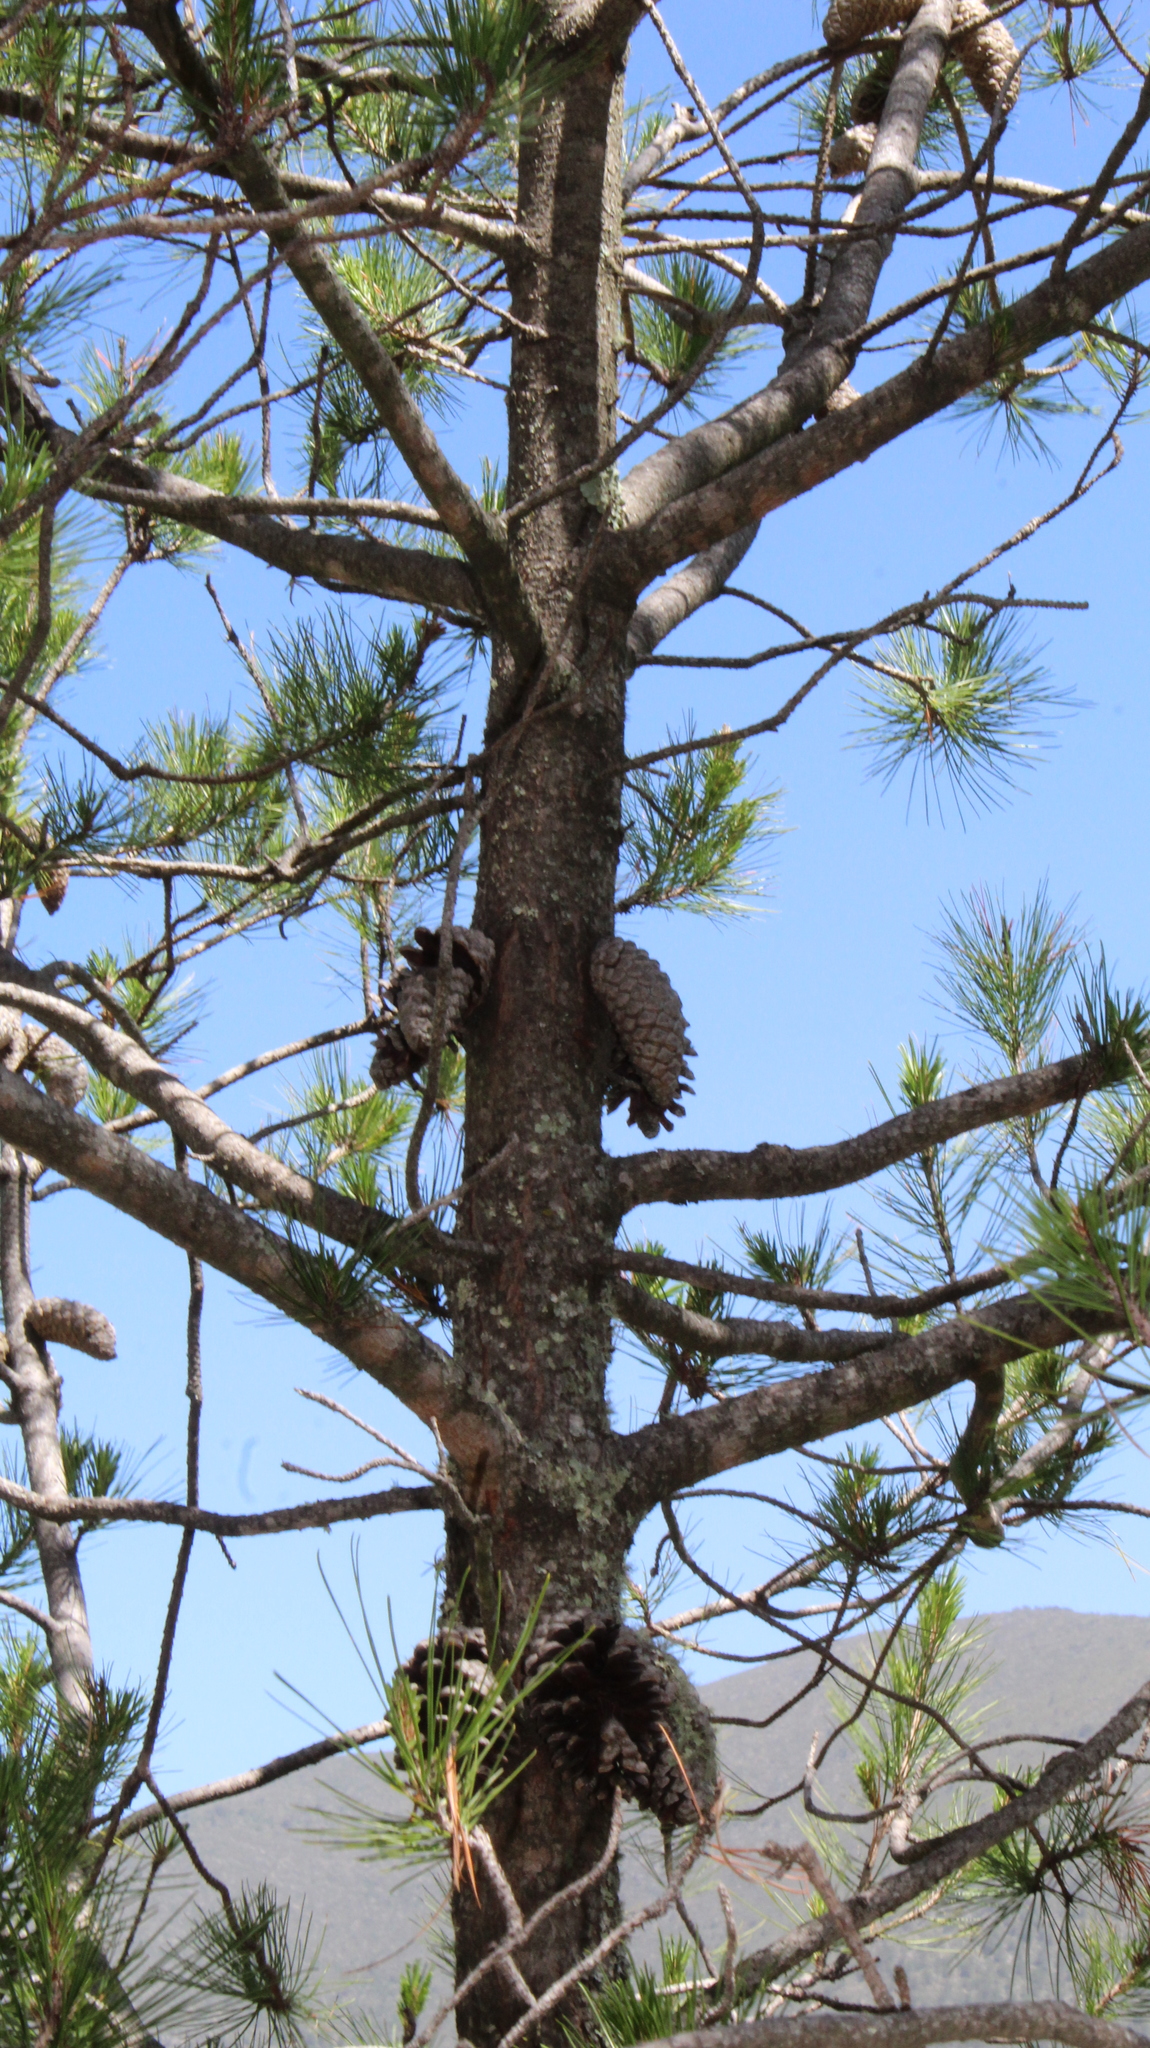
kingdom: Plantae
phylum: Tracheophyta
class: Pinopsida
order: Pinales
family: Pinaceae
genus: Pinus
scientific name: Pinus greggii
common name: Gregg’s pine
